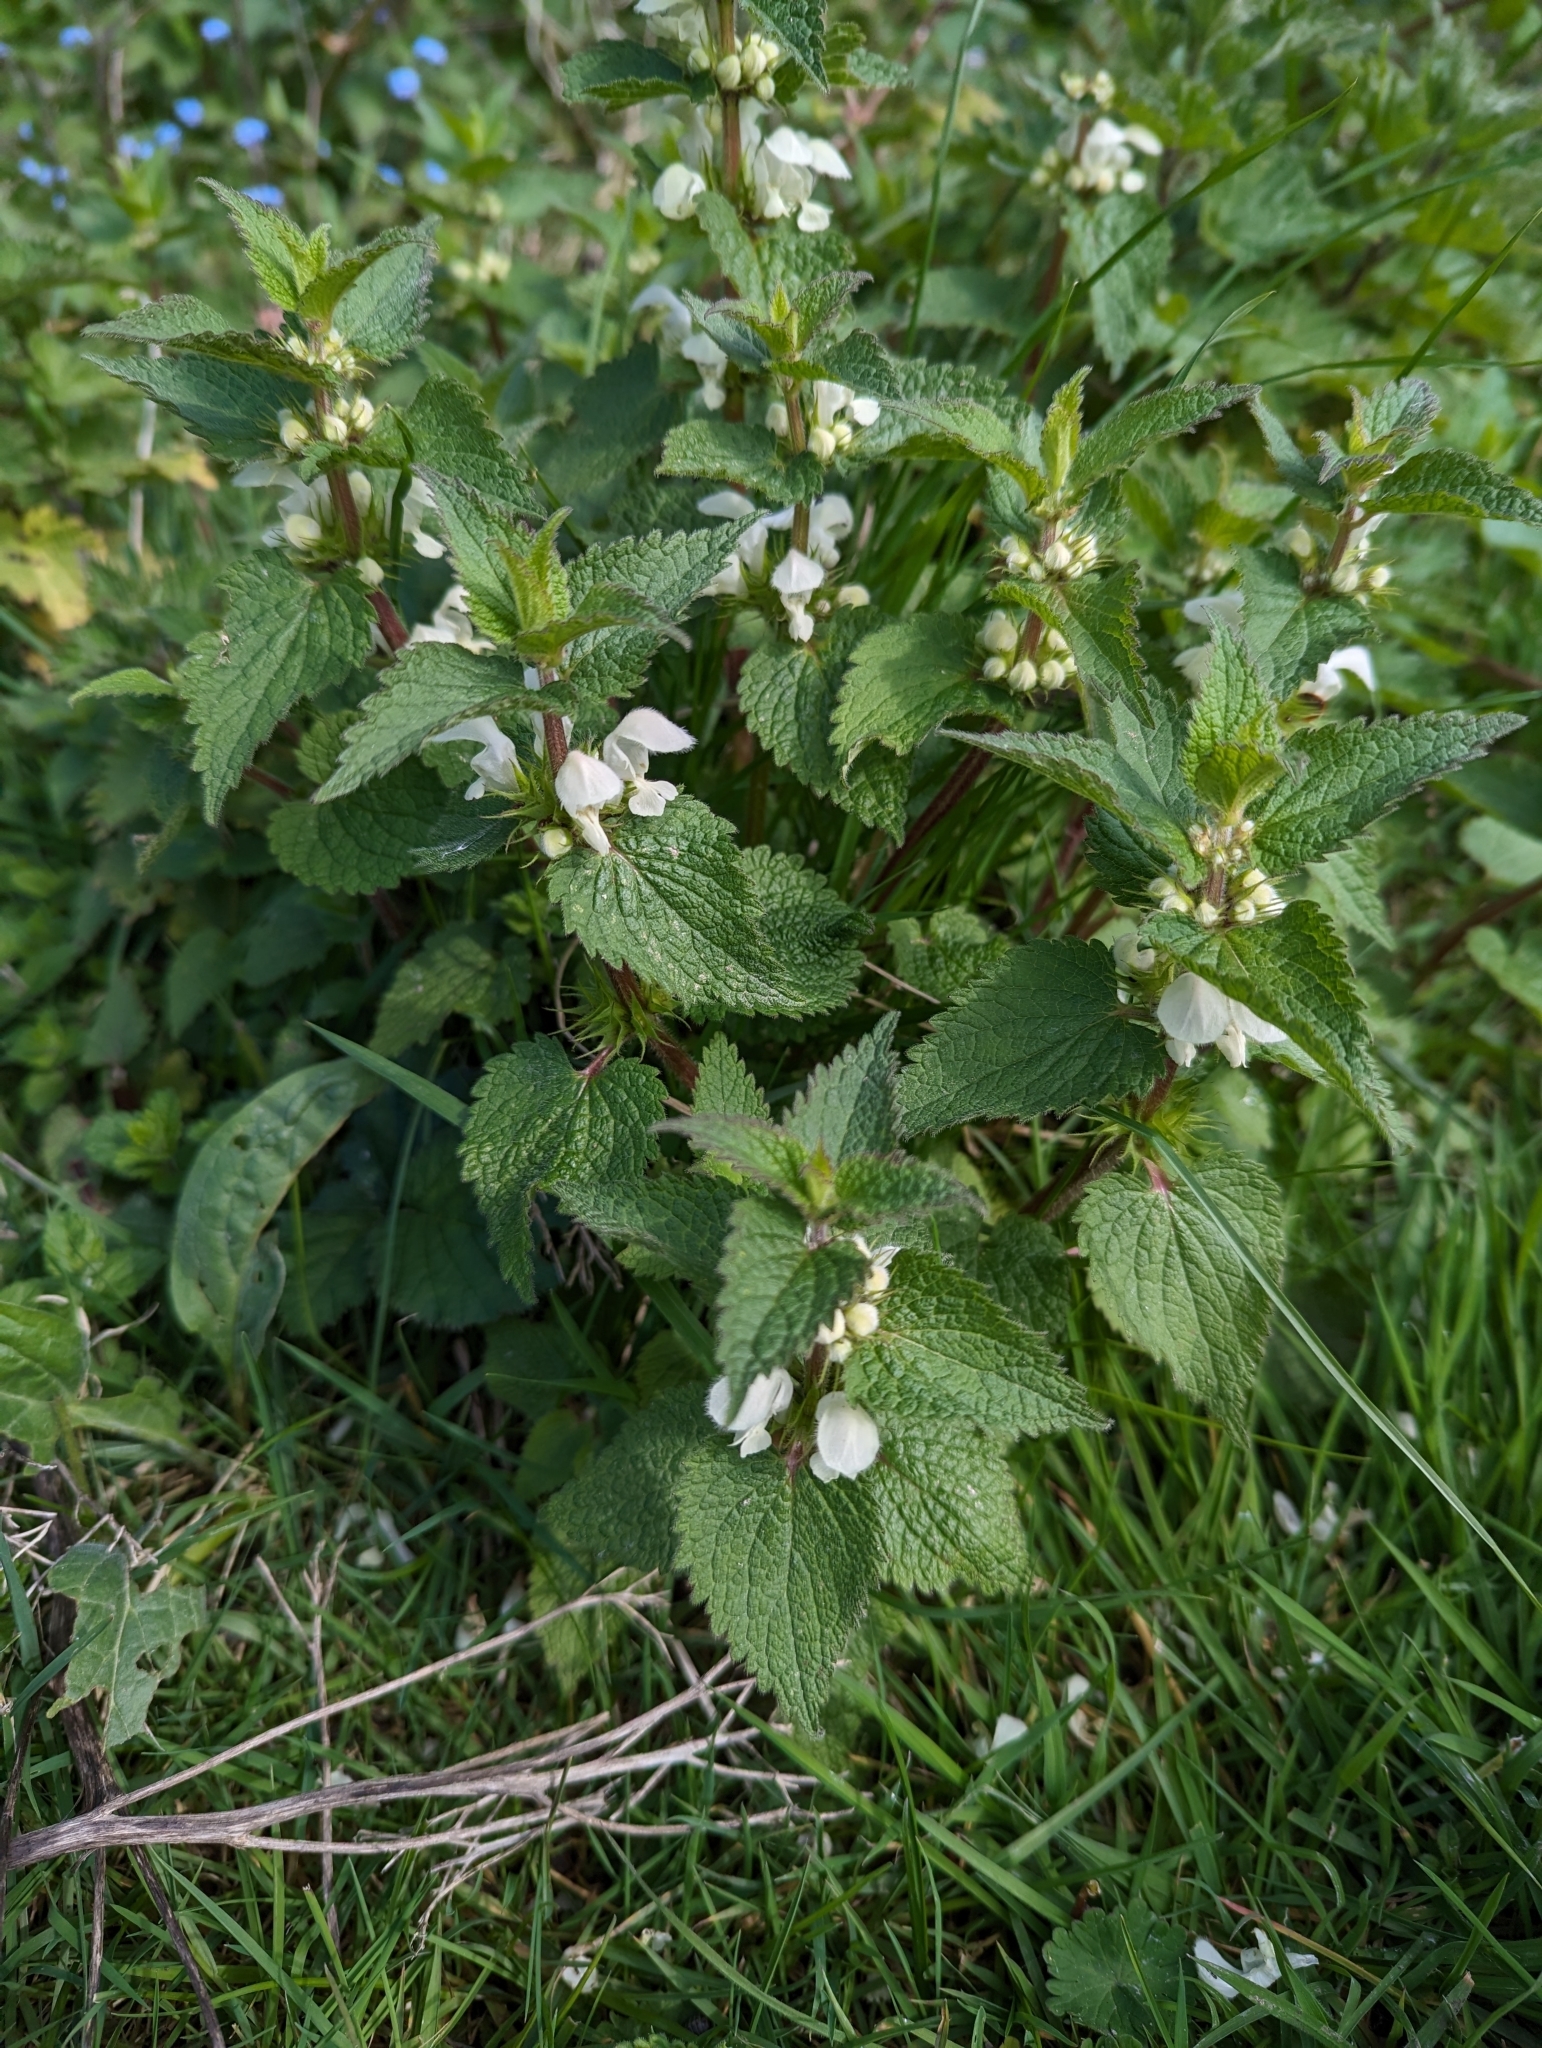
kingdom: Plantae
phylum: Tracheophyta
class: Magnoliopsida
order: Lamiales
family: Lamiaceae
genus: Lamium
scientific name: Lamium album
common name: White dead-nettle
